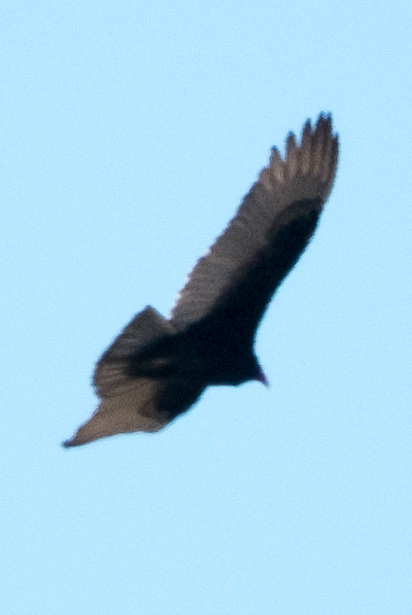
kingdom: Animalia
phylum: Chordata
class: Aves
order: Accipitriformes
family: Cathartidae
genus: Cathartes
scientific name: Cathartes aura
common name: Turkey vulture
